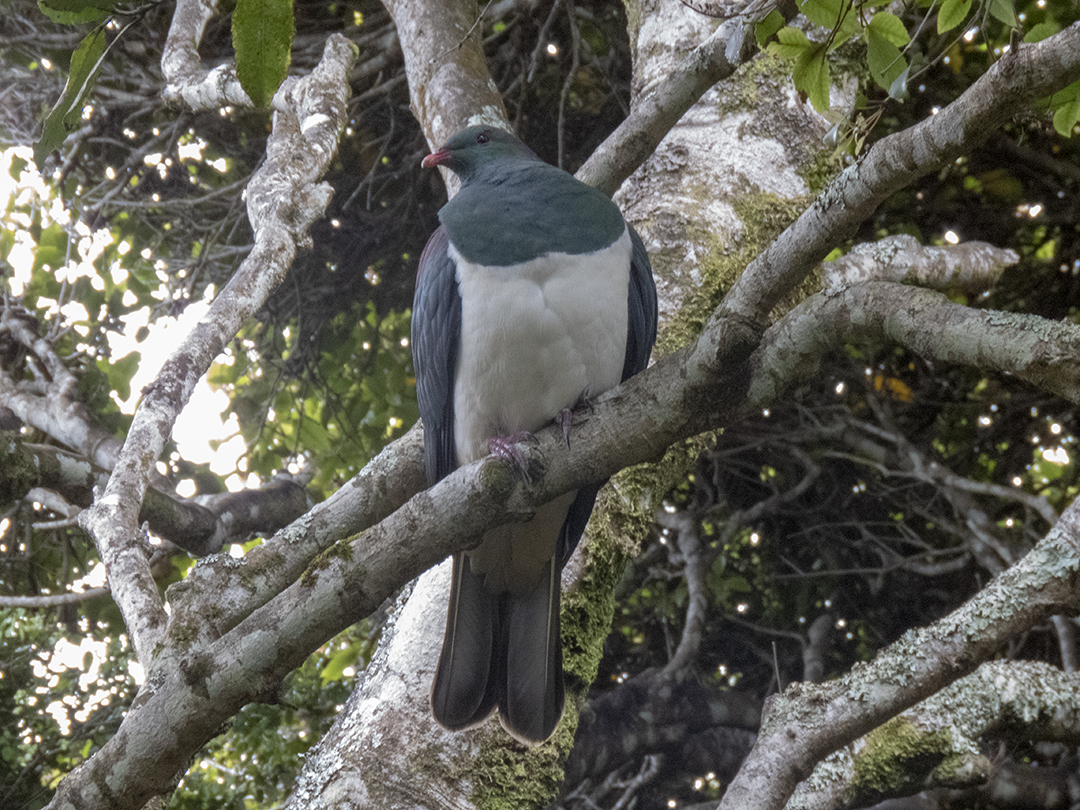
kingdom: Animalia
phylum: Chordata
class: Aves
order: Columbiformes
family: Columbidae
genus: Hemiphaga
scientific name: Hemiphaga novaeseelandiae
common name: New zealand pigeon
